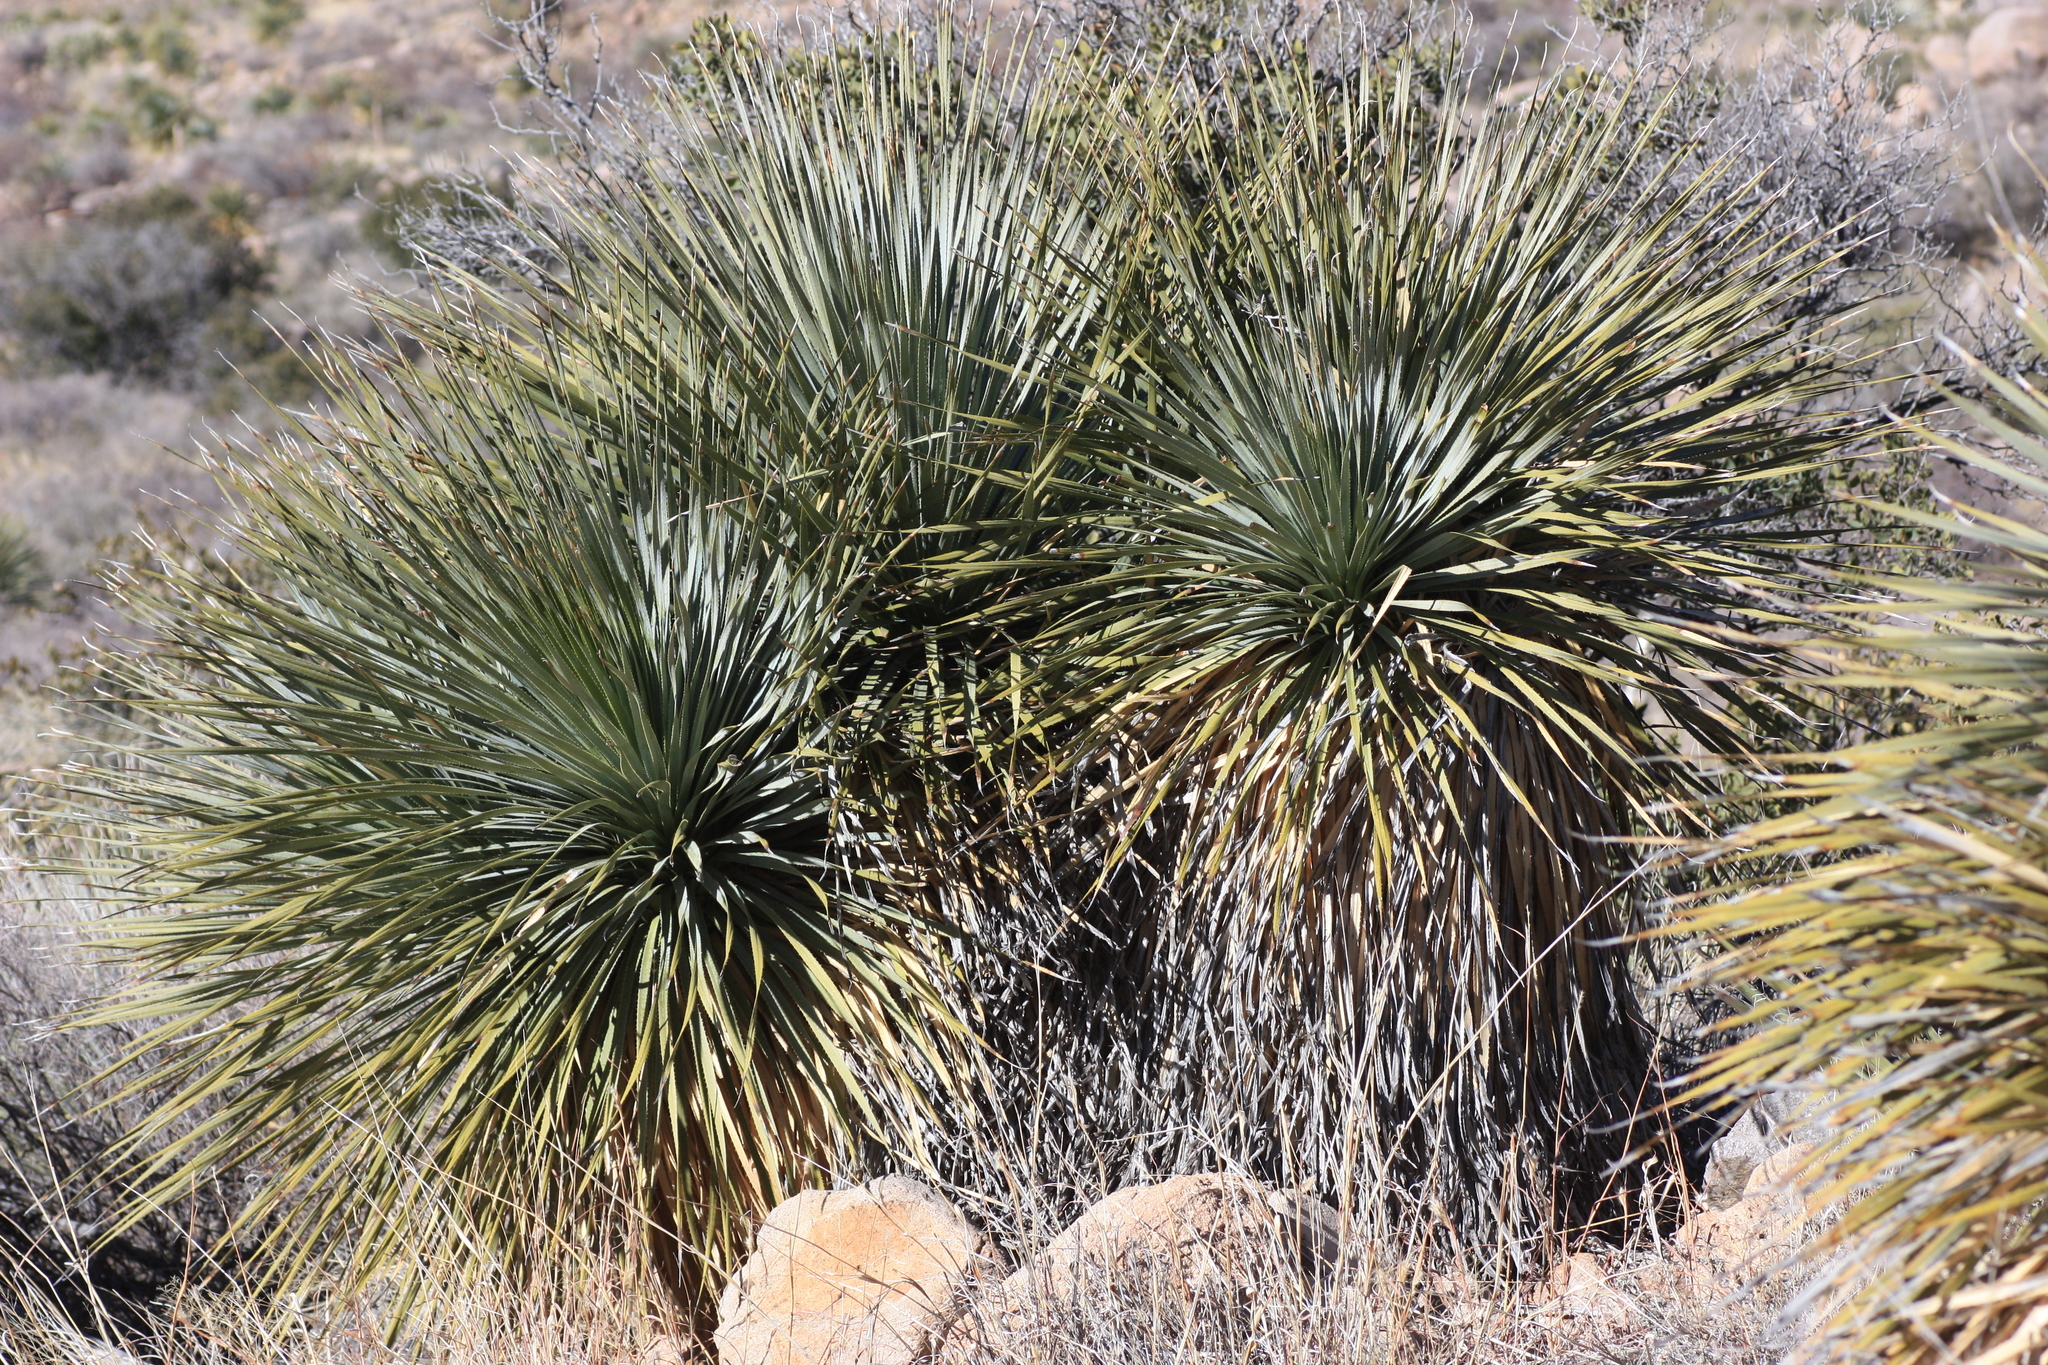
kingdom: Plantae
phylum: Tracheophyta
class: Liliopsida
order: Asparagales
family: Asparagaceae
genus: Dasylirion
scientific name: Dasylirion wheeleri
